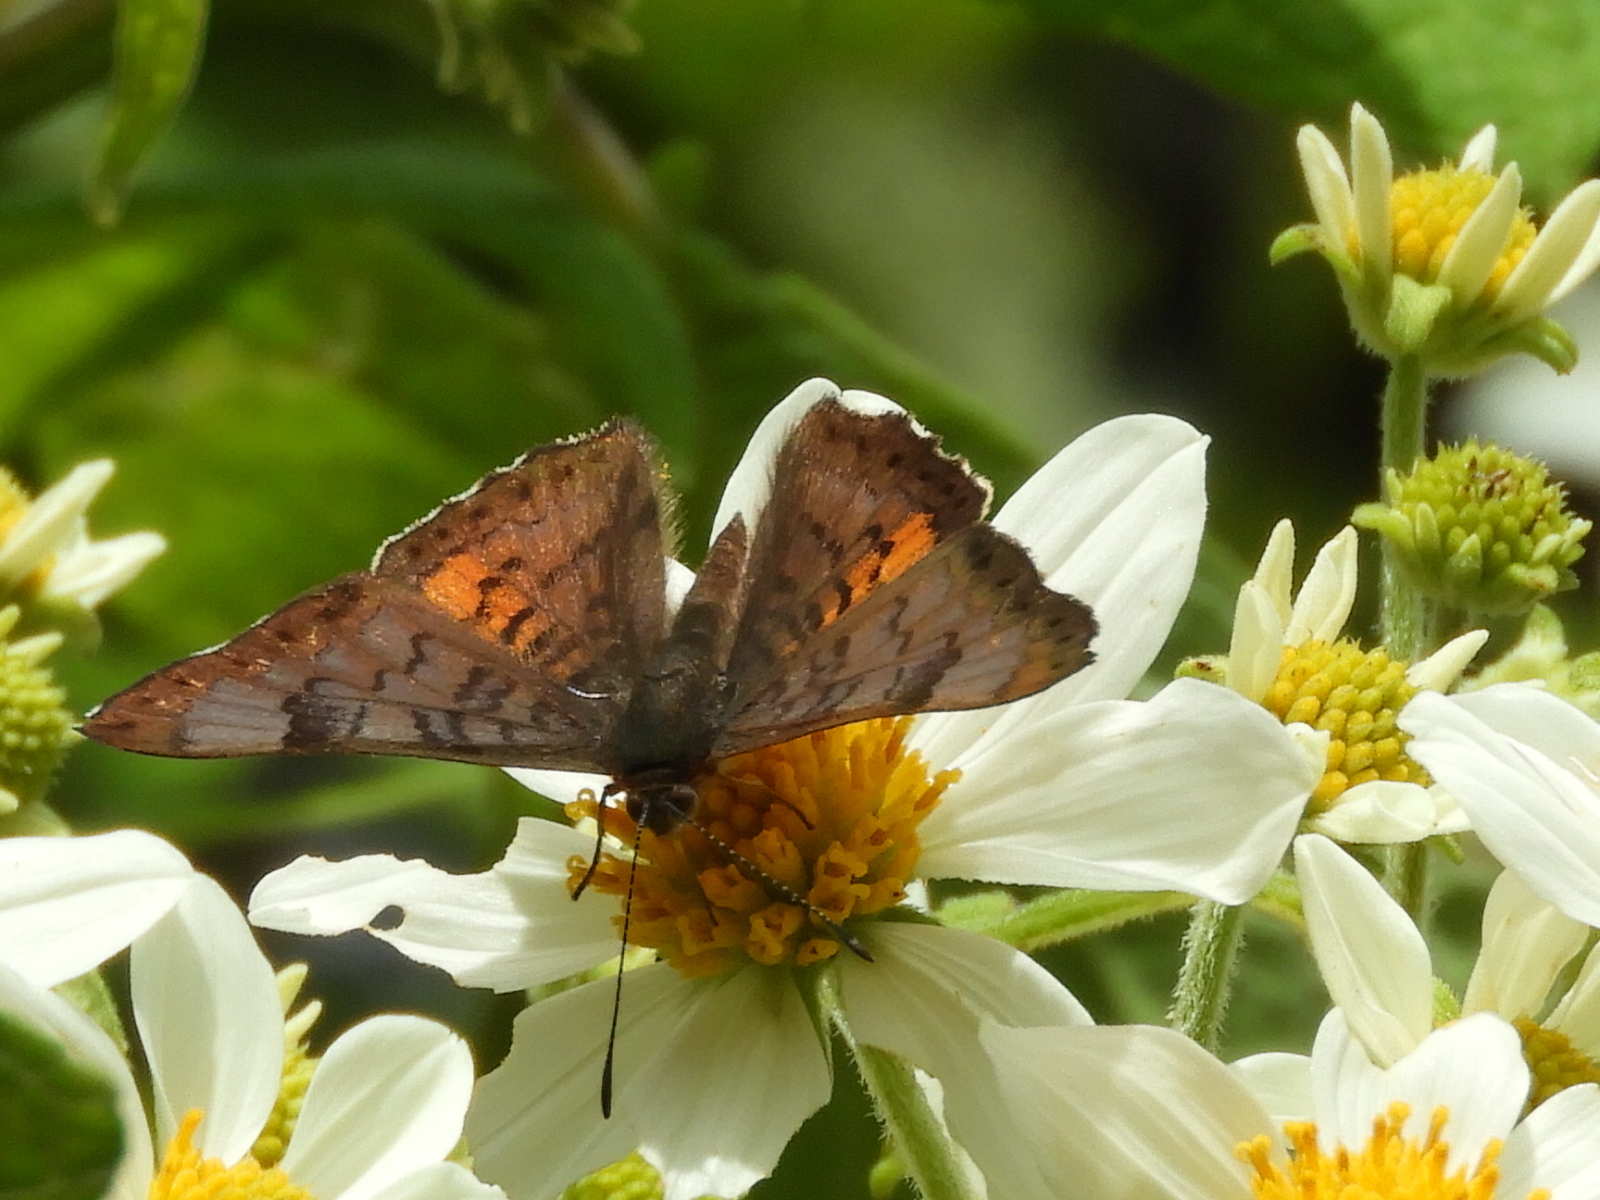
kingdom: Animalia
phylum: Arthropoda
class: Insecta
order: Lepidoptera
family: Riodinidae
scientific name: Riodinidae
